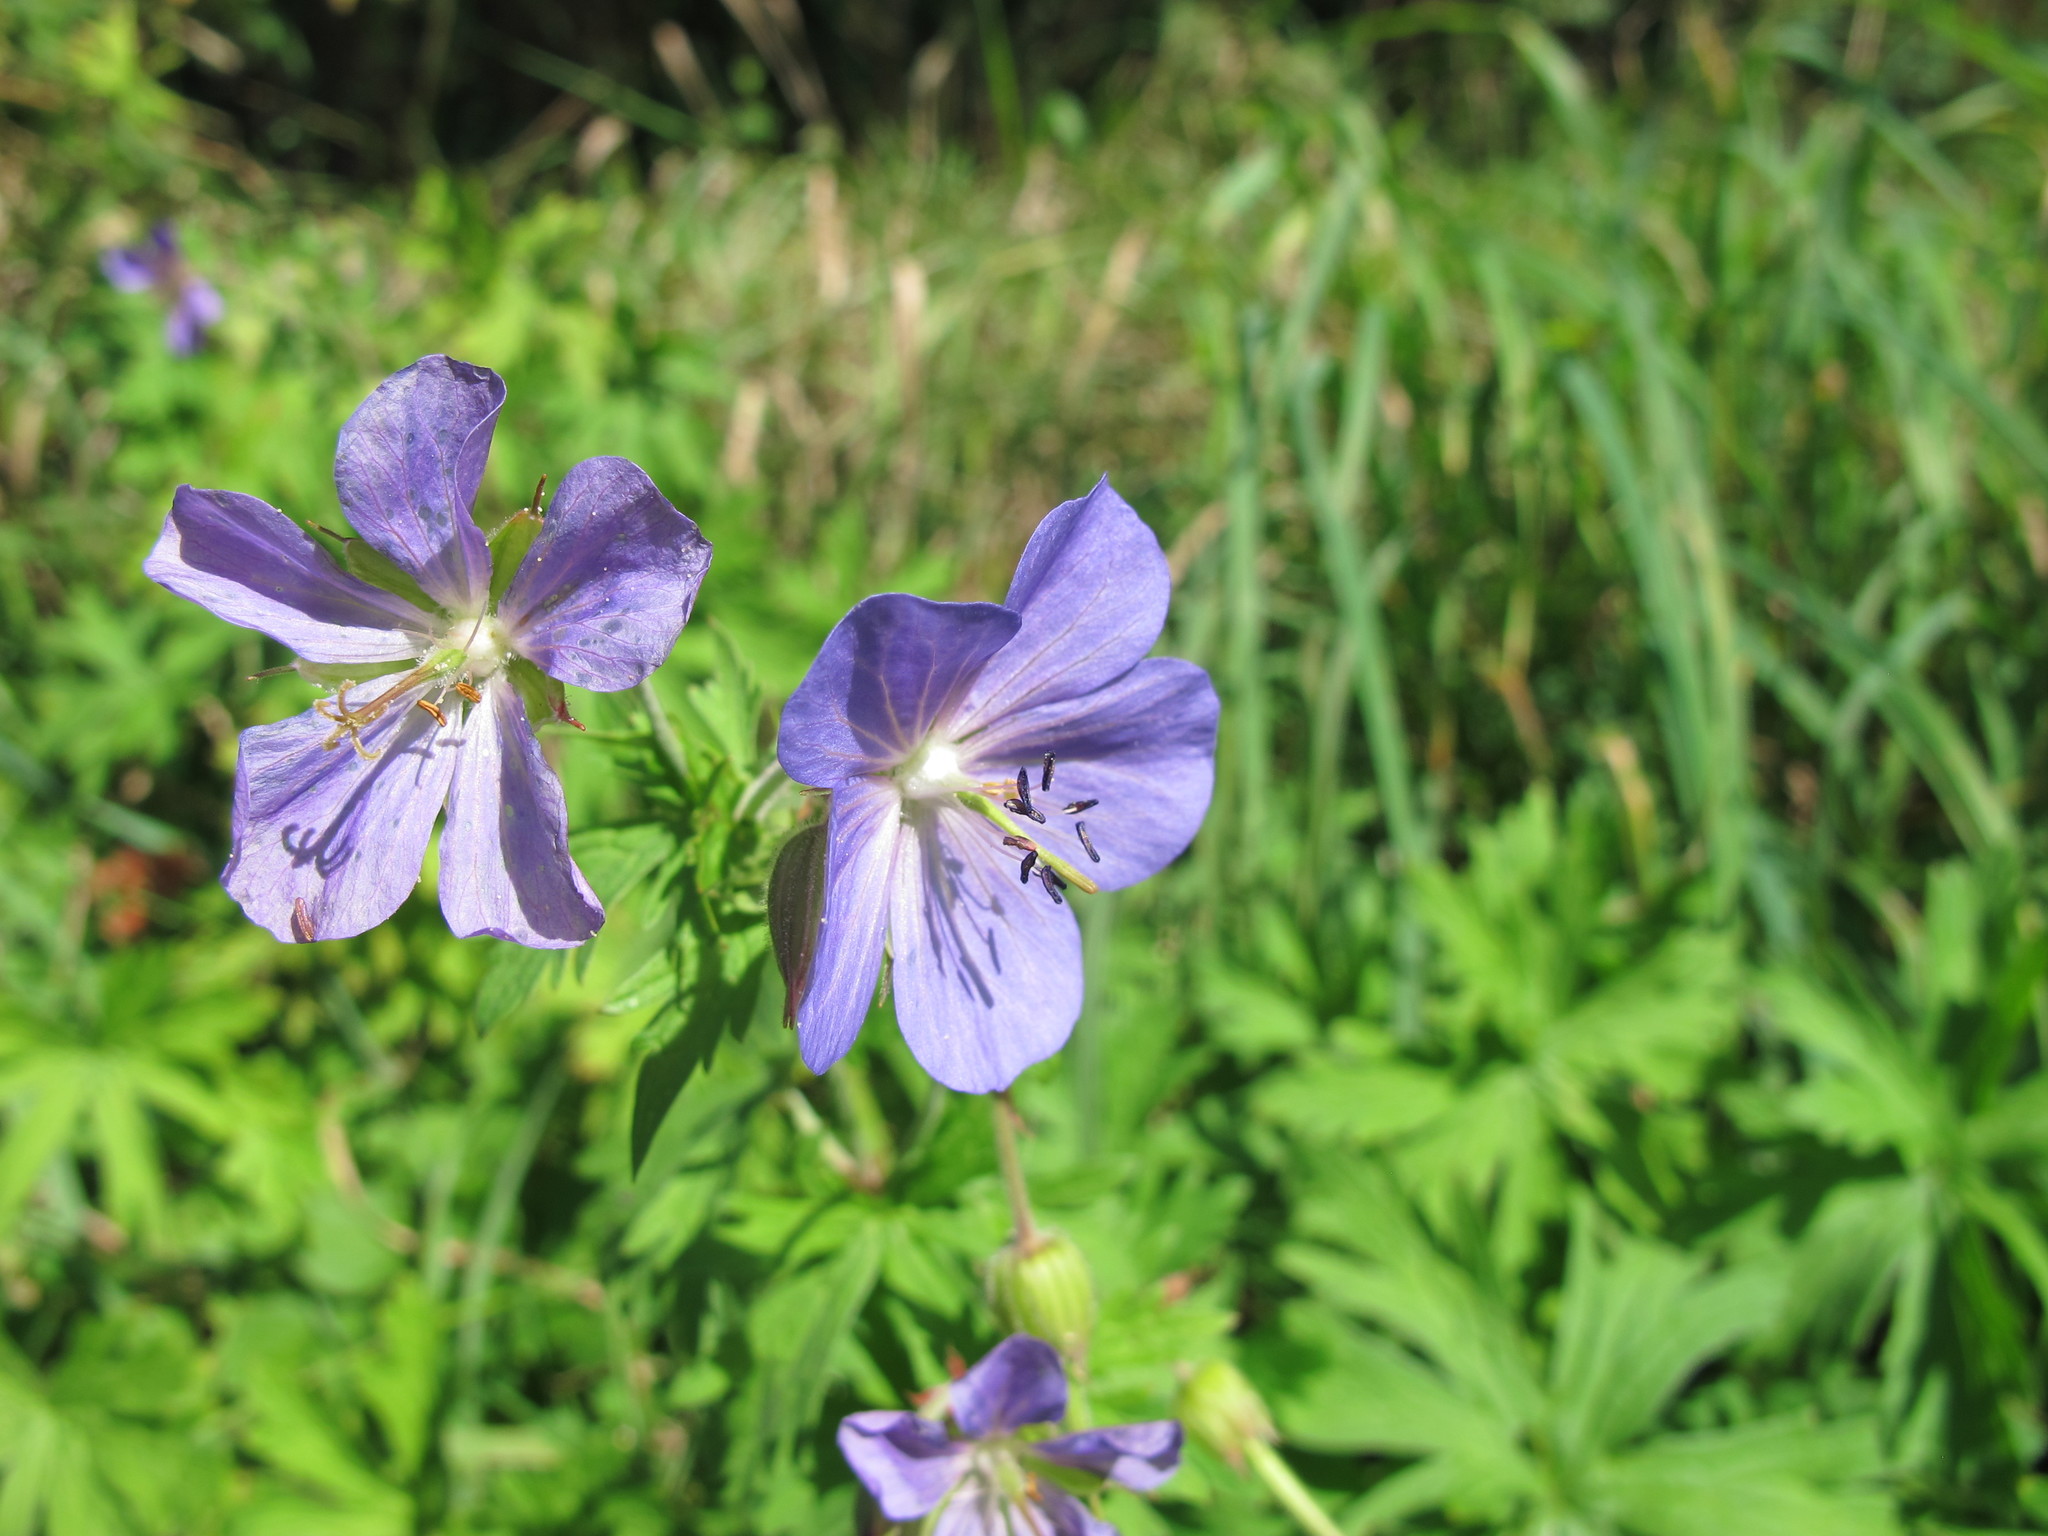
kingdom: Plantae
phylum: Tracheophyta
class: Magnoliopsida
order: Geraniales
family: Geraniaceae
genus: Geranium
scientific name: Geranium pratense
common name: Meadow crane's-bill
